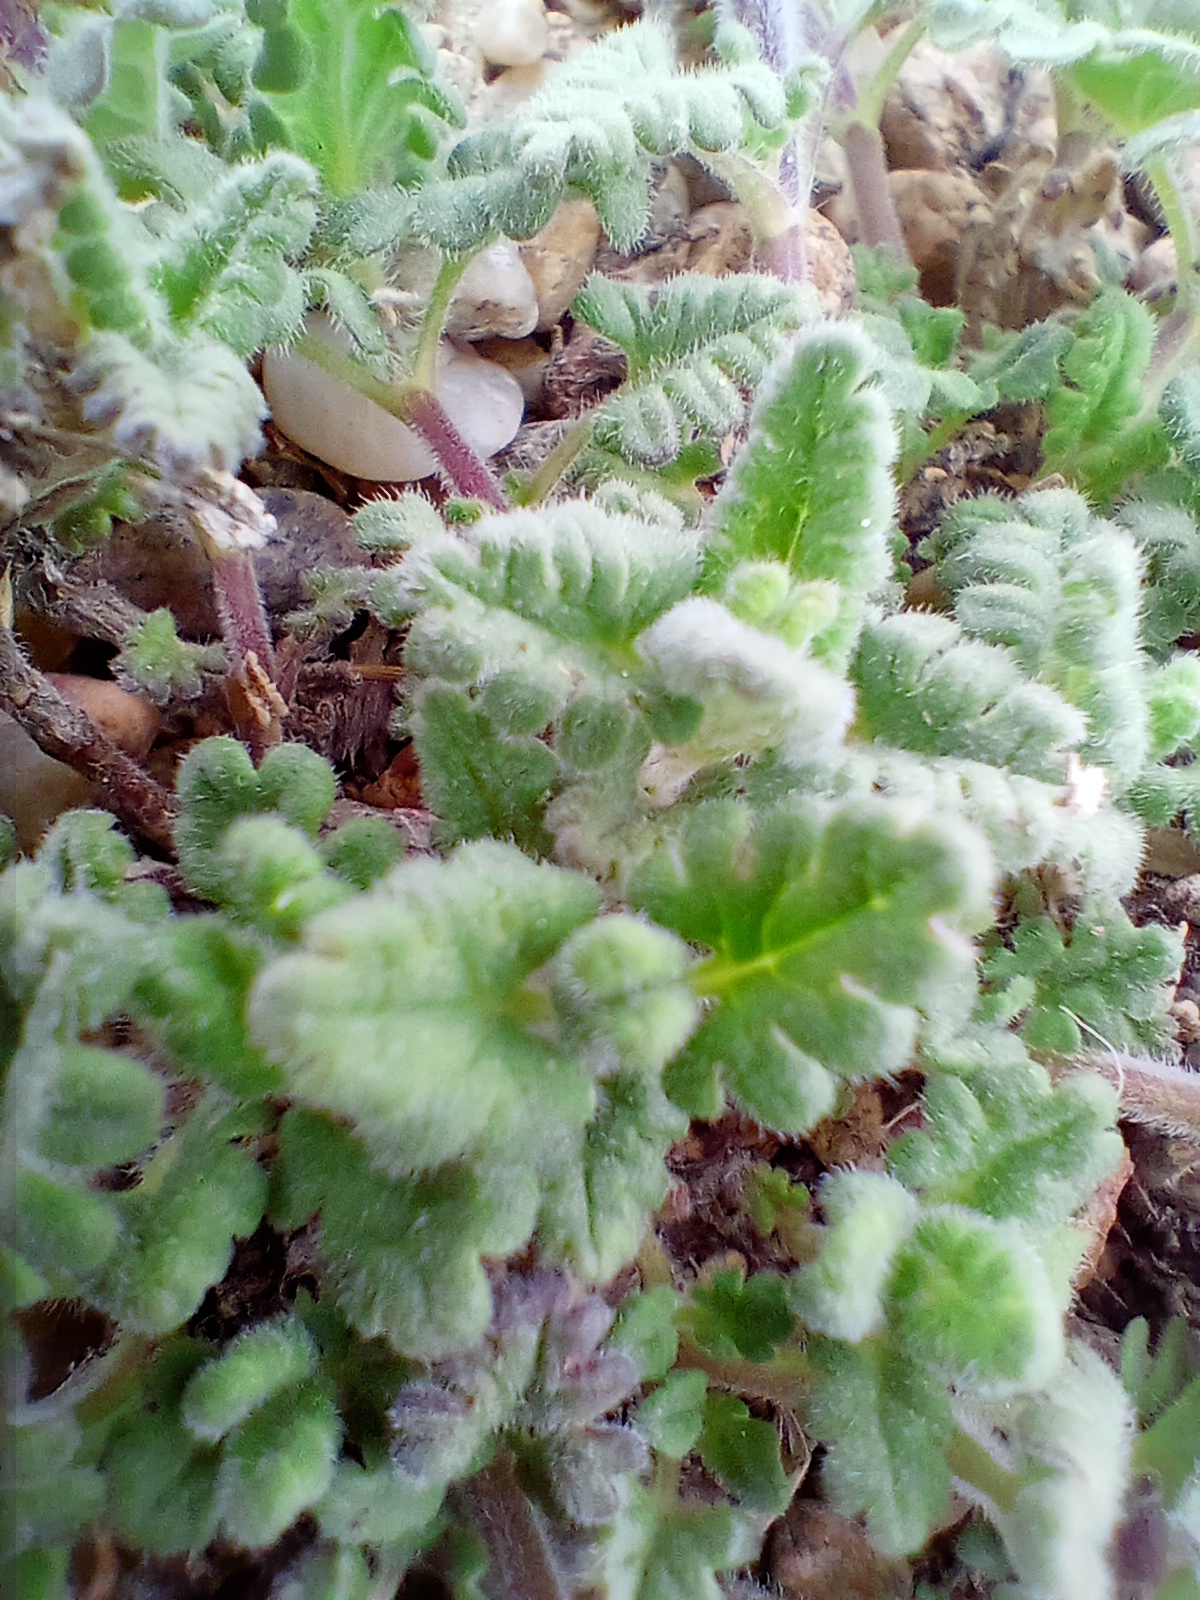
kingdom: Plantae
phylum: Tracheophyta
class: Magnoliopsida
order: Lamiales
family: Lamiaceae
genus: Dracocephalum
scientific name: Dracocephalum pinnatum
